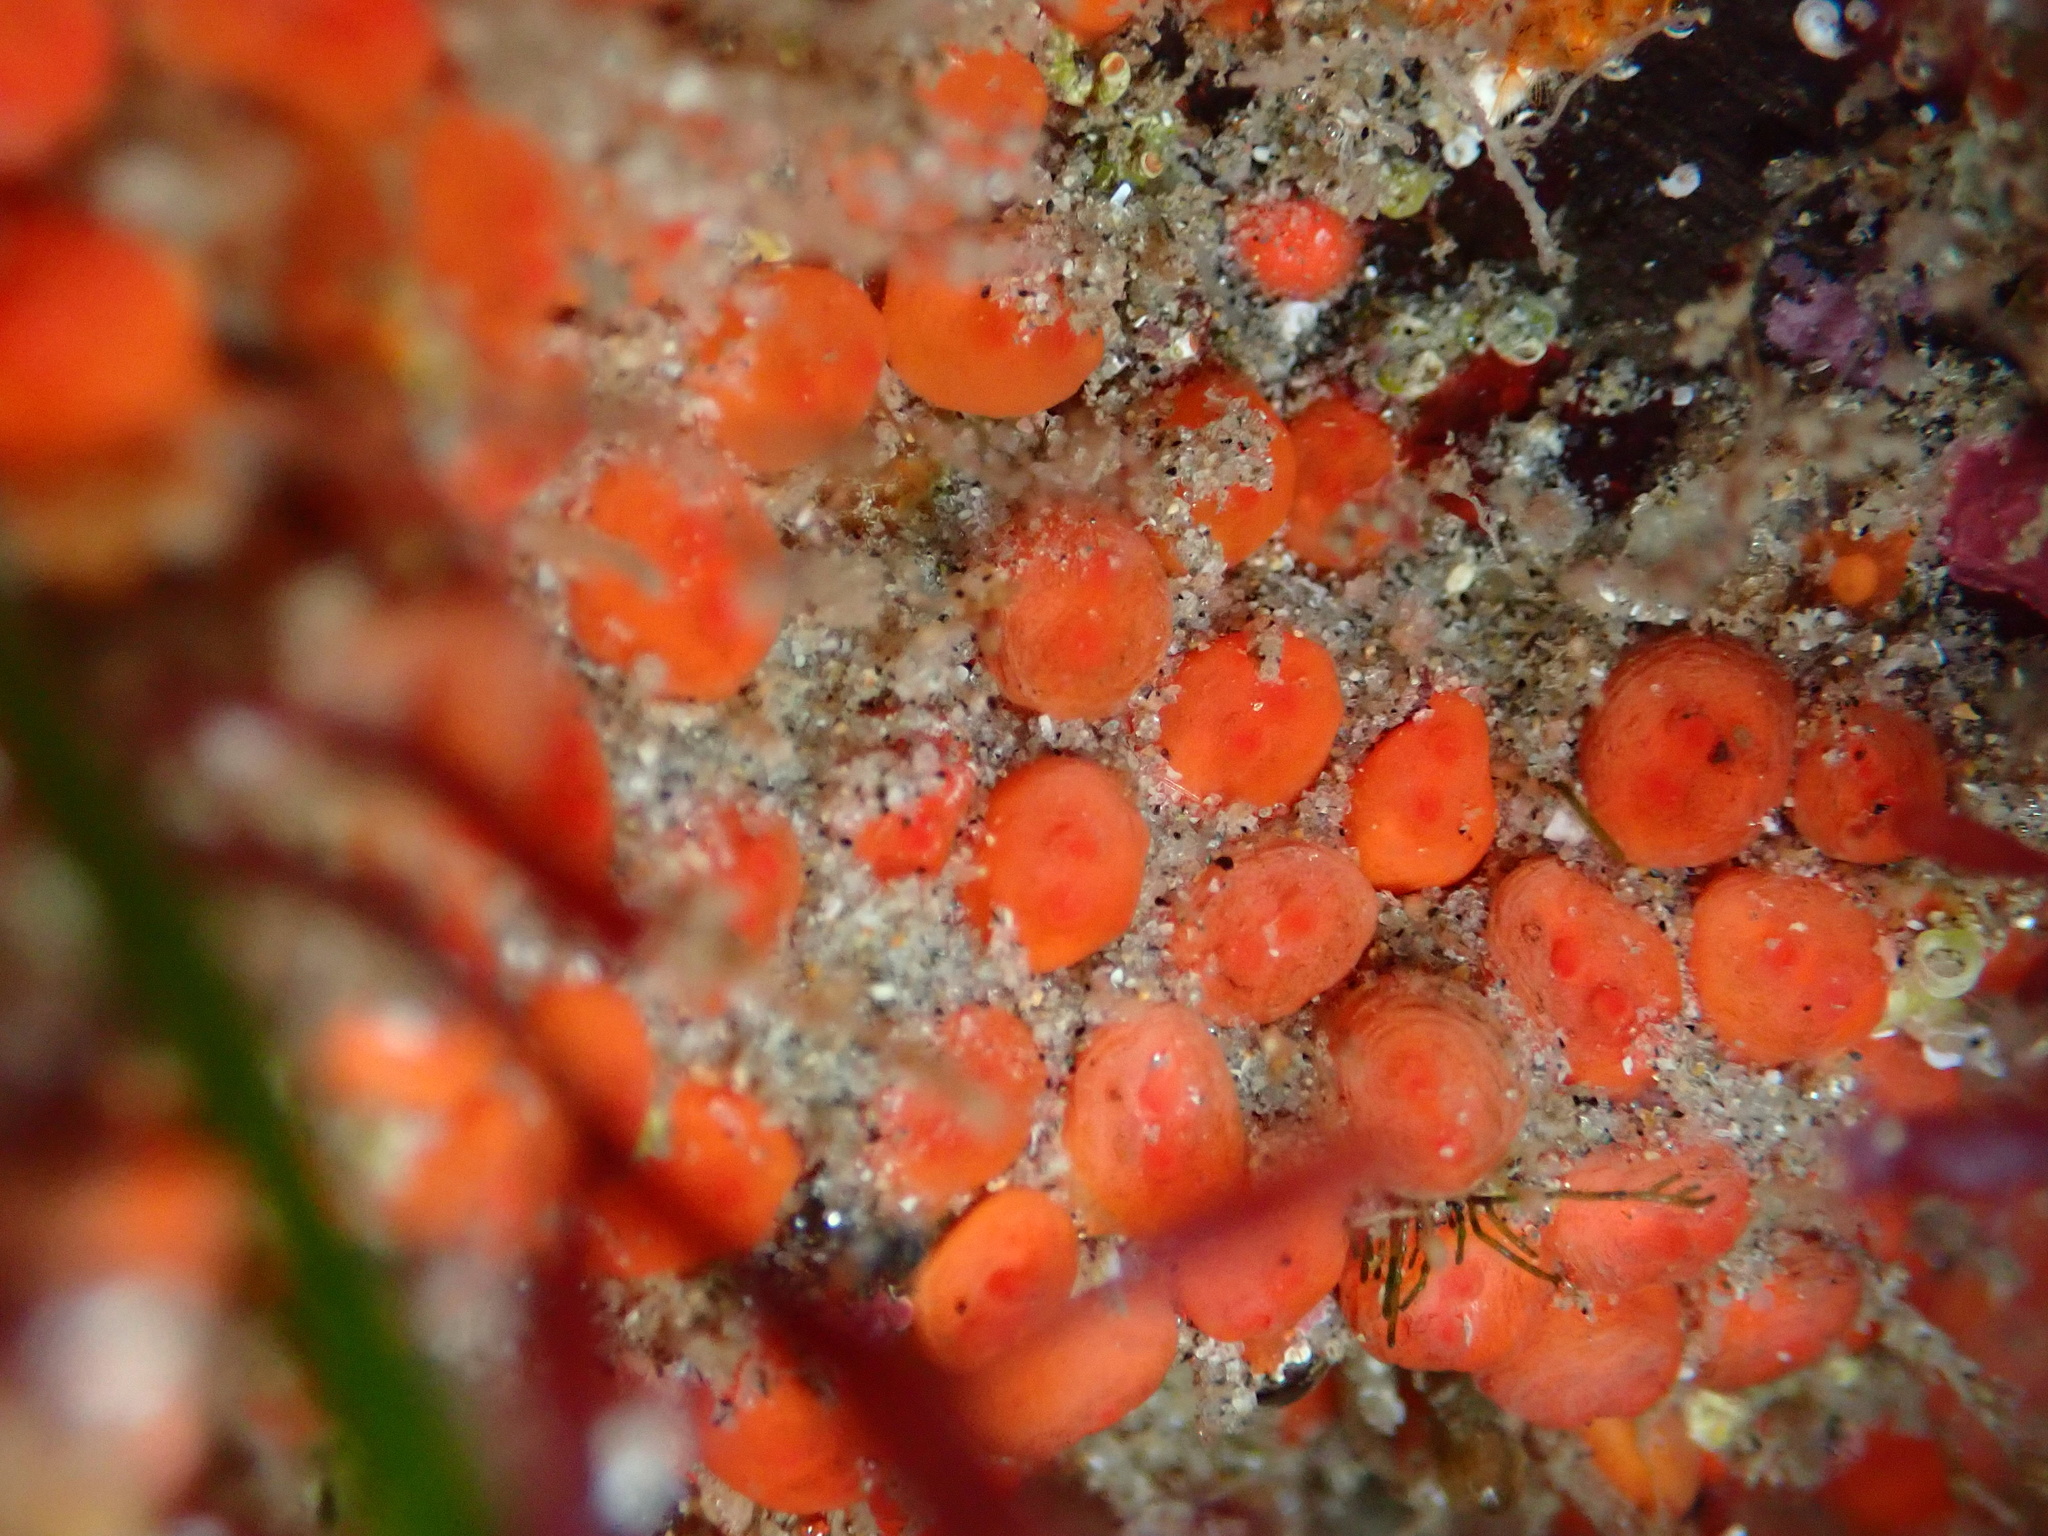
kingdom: Animalia
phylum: Chordata
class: Ascidiacea
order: Stolidobranchia
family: Styelidae
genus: Metandrocarpa
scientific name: Metandrocarpa taylori
